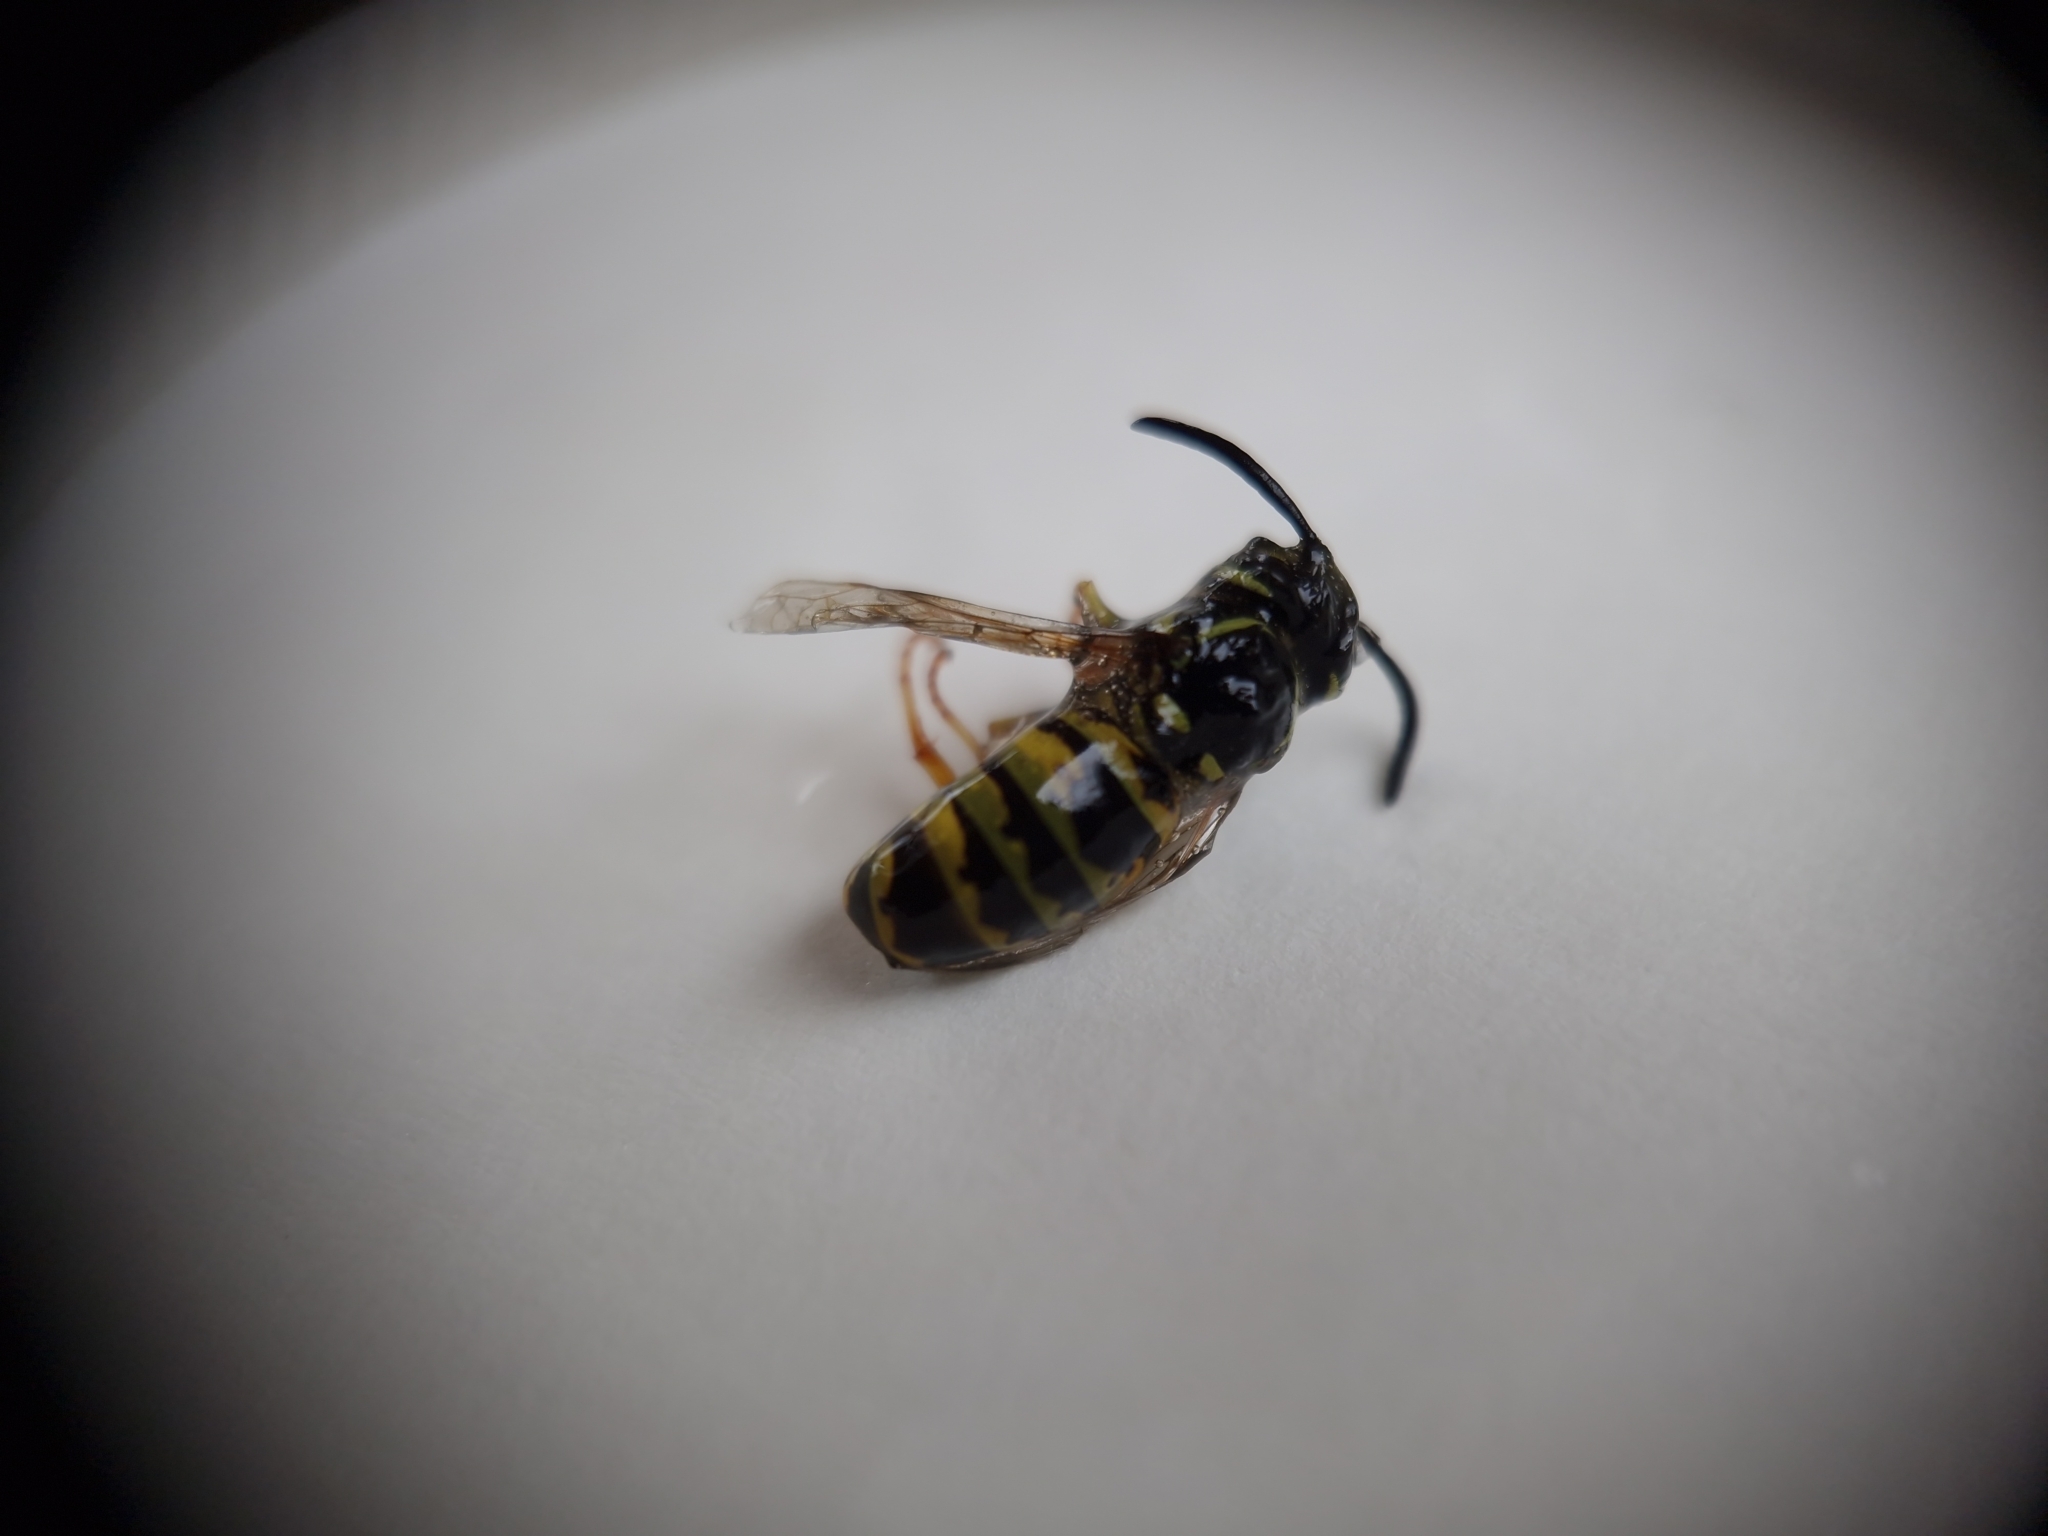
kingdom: Animalia
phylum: Arthropoda
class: Insecta
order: Hymenoptera
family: Vespidae
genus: Vespula
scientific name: Vespula vulgaris
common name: Common wasp
